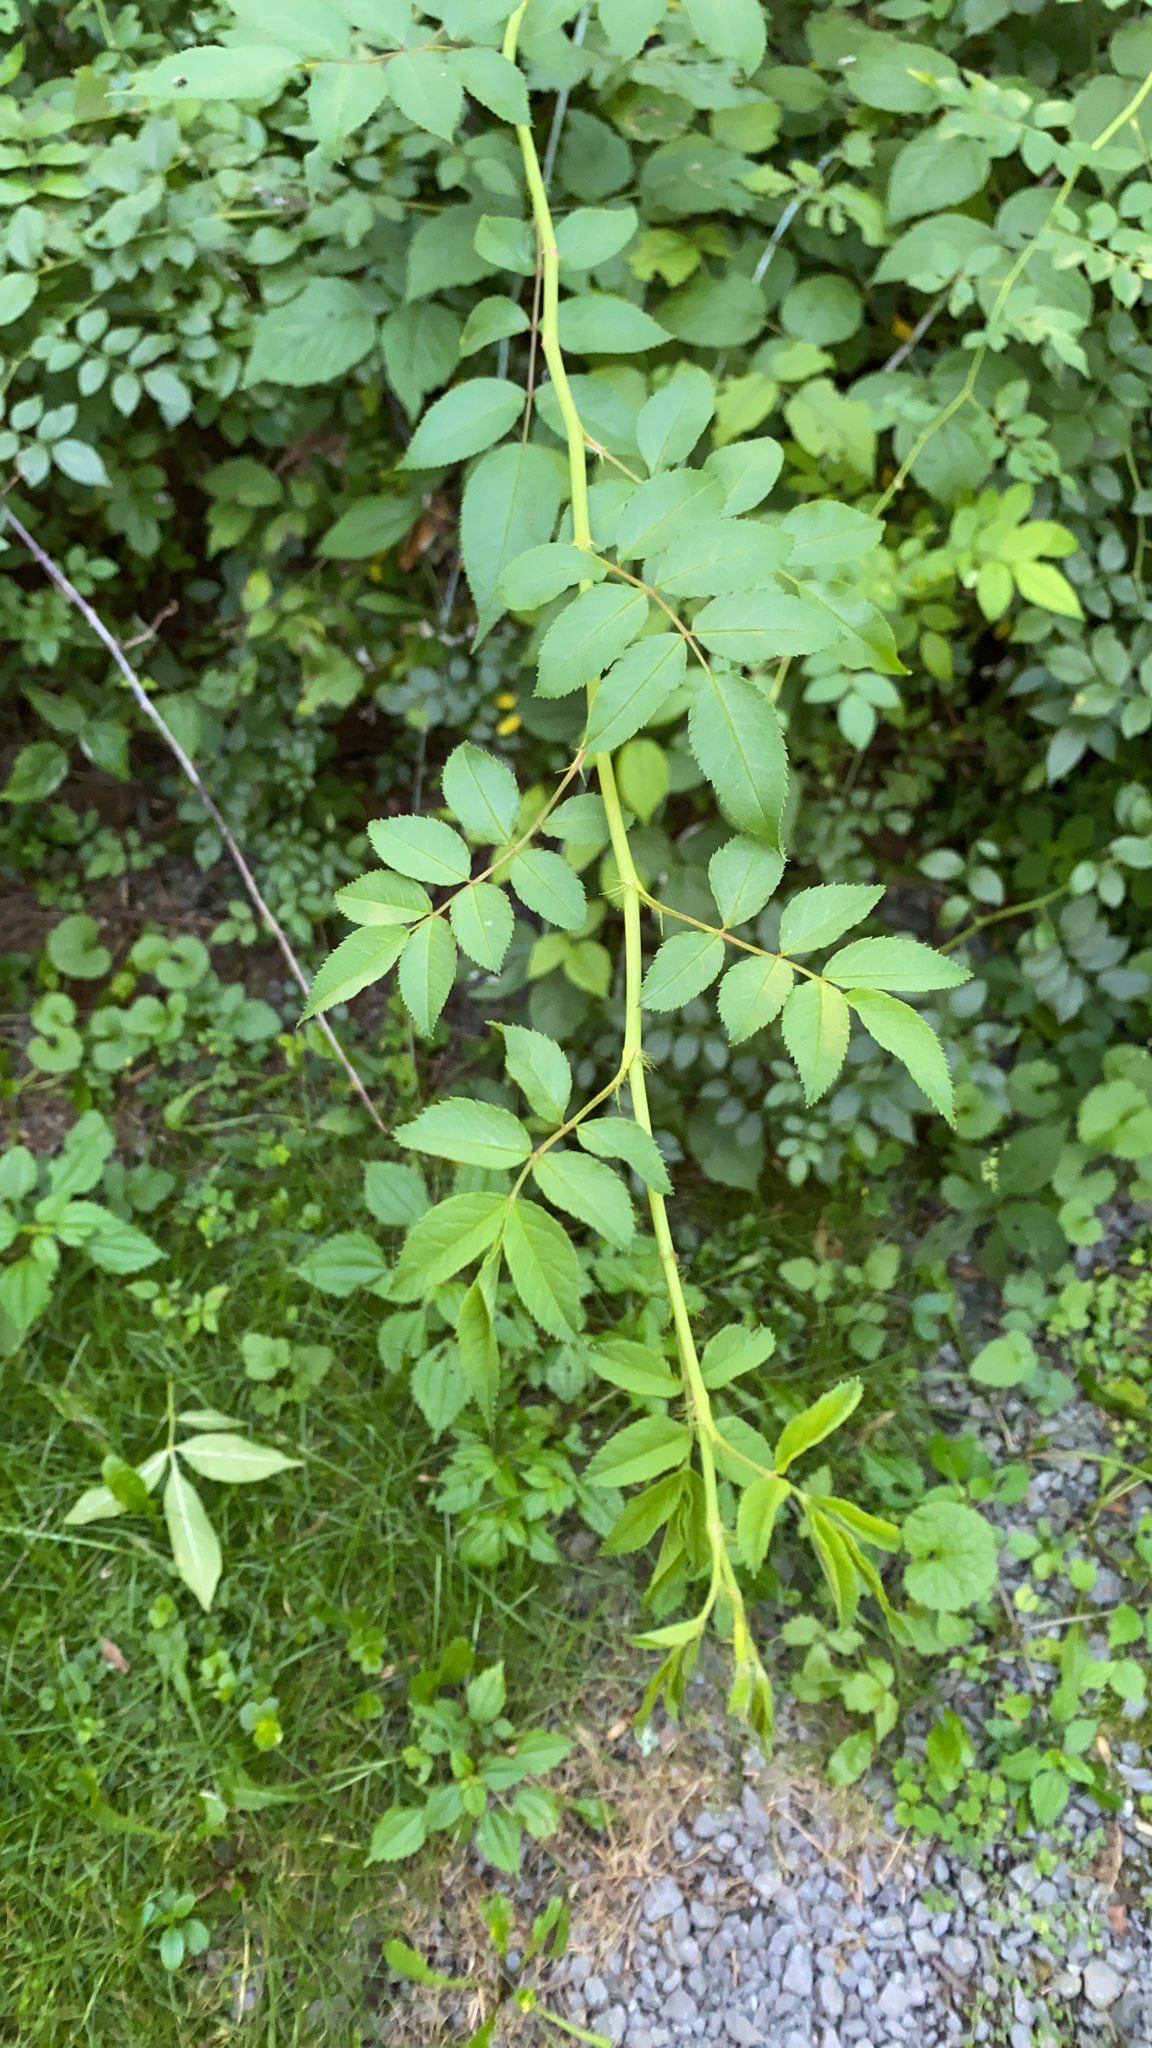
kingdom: Plantae
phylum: Tracheophyta
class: Magnoliopsida
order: Rosales
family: Rosaceae
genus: Rosa
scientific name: Rosa multiflora
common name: Multiflora rose
